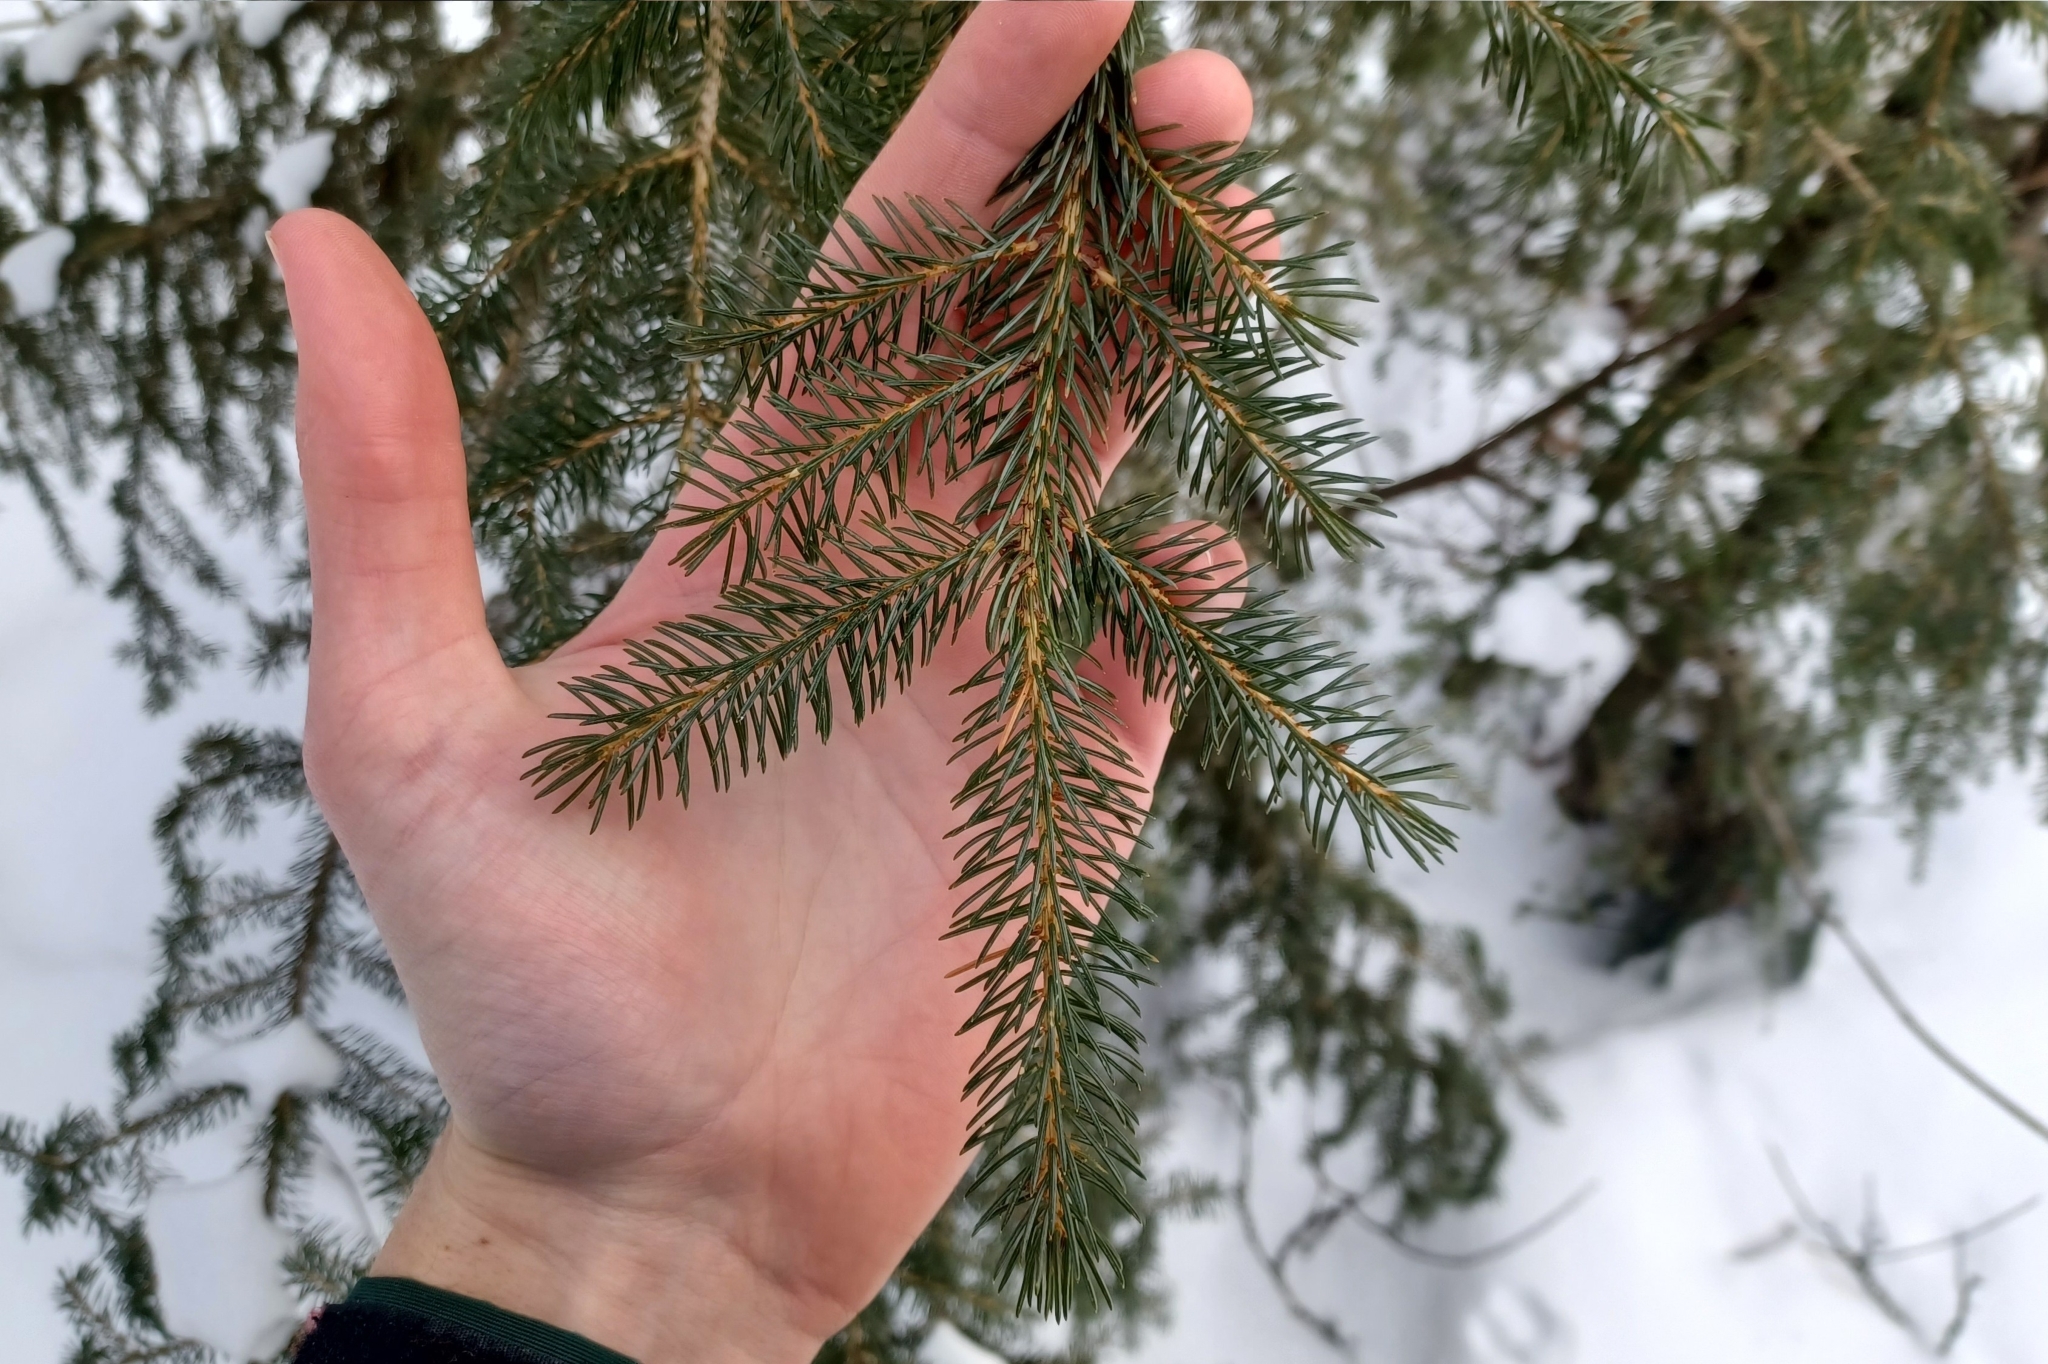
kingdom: Plantae
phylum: Tracheophyta
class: Pinopsida
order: Pinales
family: Pinaceae
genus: Picea
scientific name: Picea rubens
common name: Red spruce
